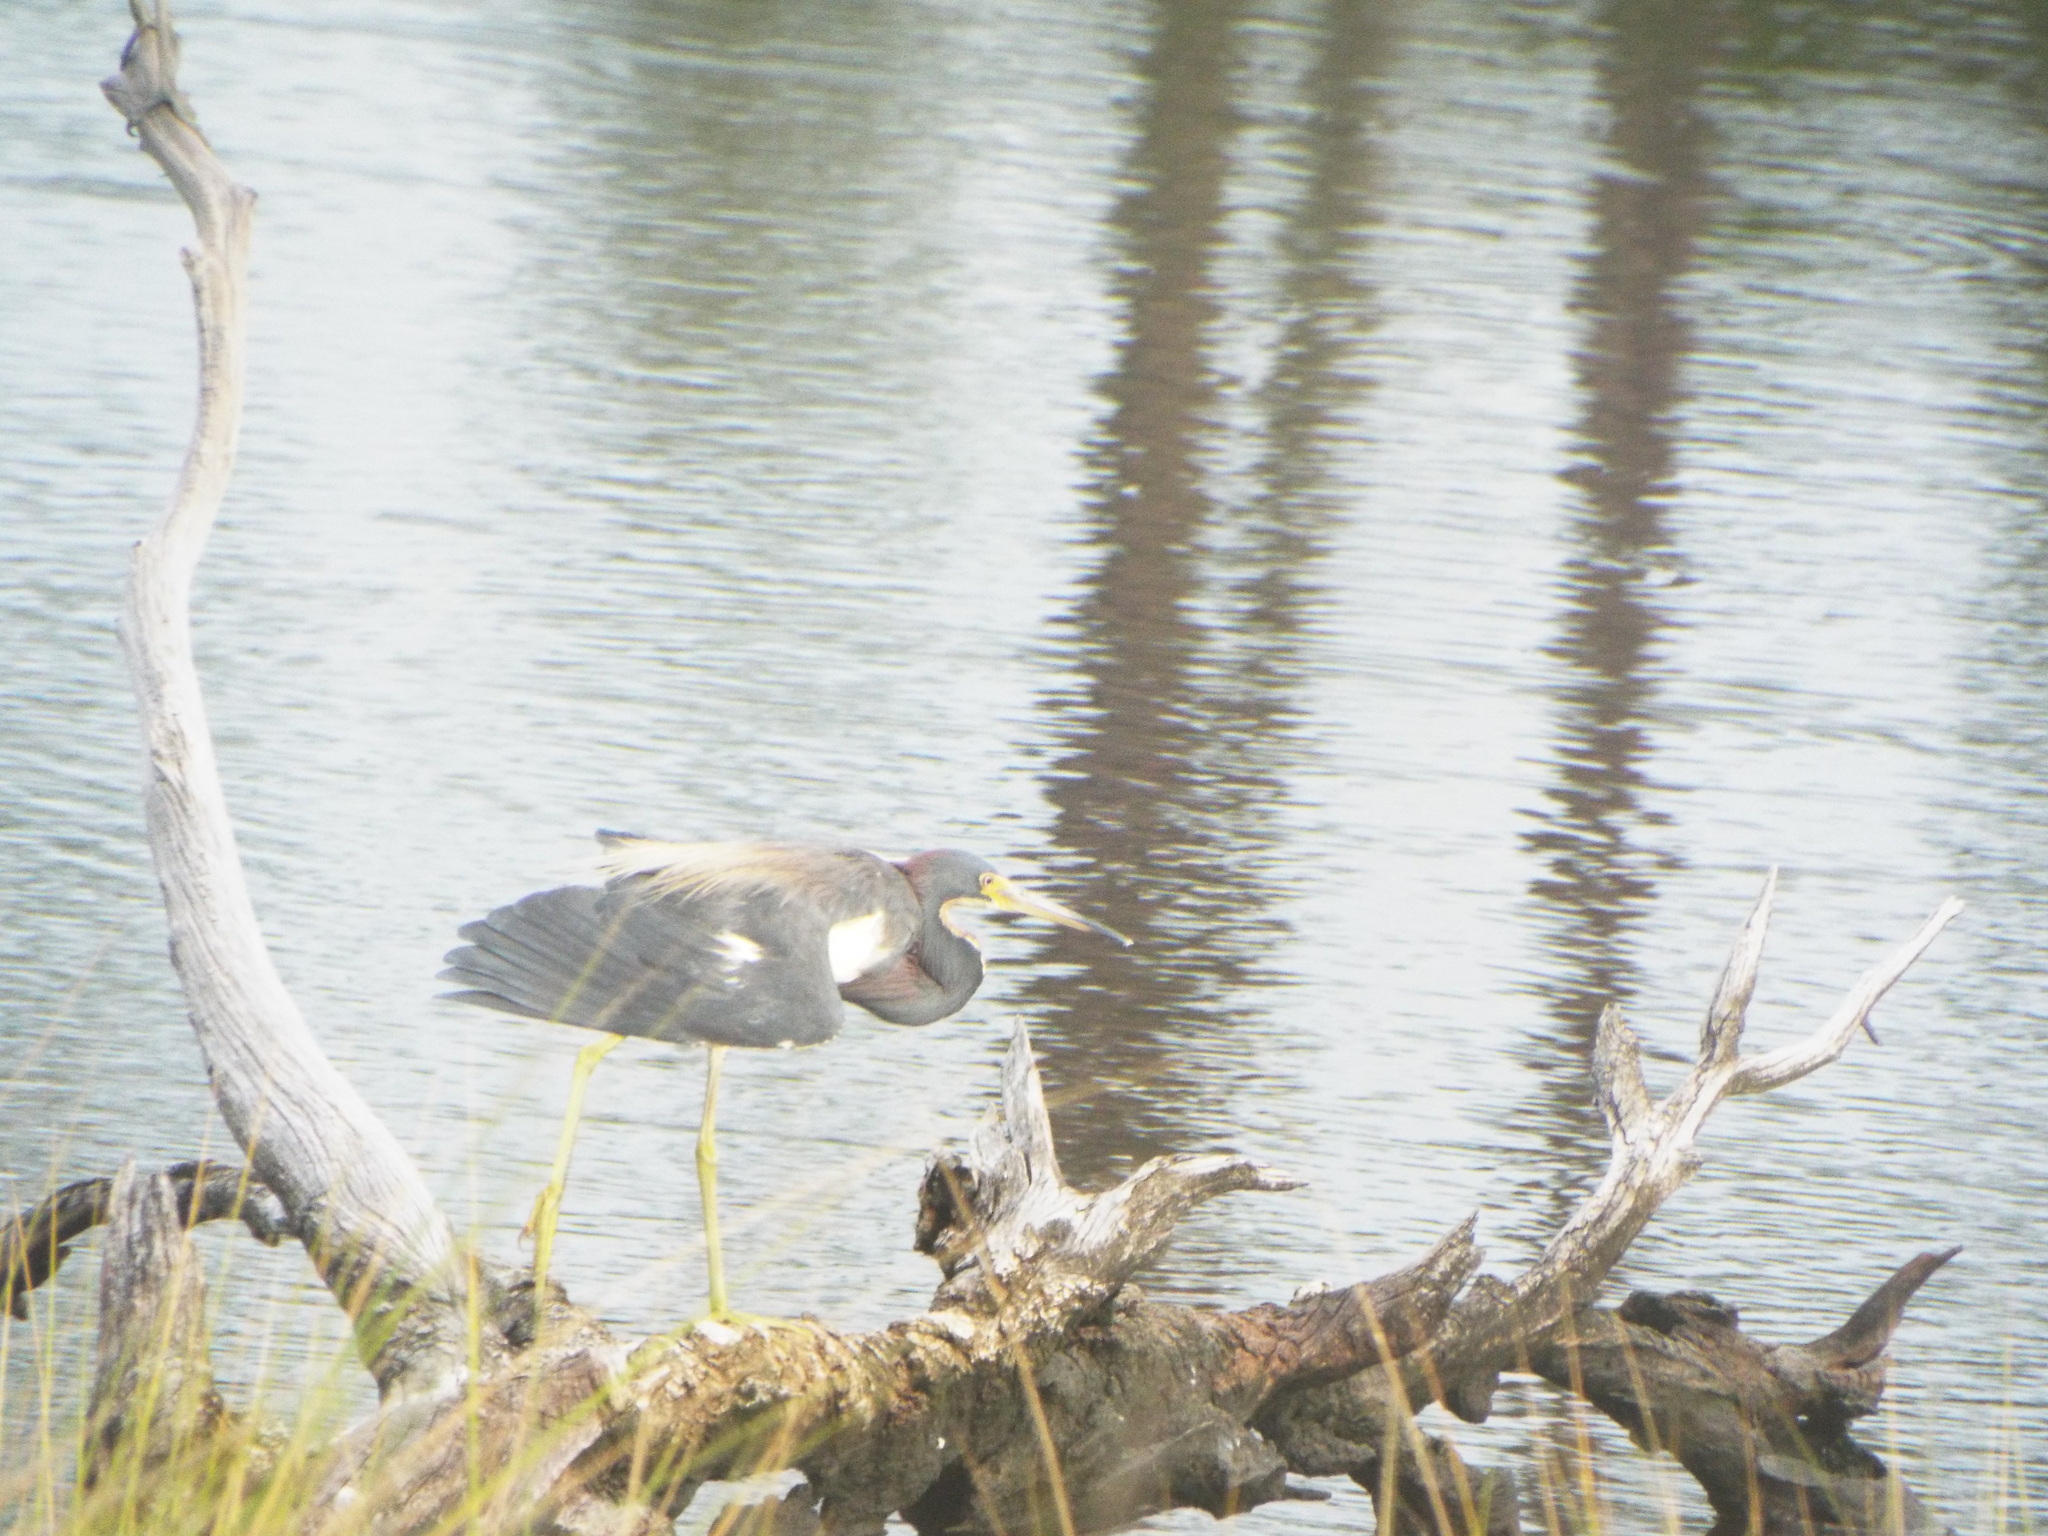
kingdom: Animalia
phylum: Chordata
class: Aves
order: Pelecaniformes
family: Ardeidae
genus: Egretta
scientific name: Egretta tricolor
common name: Tricolored heron
